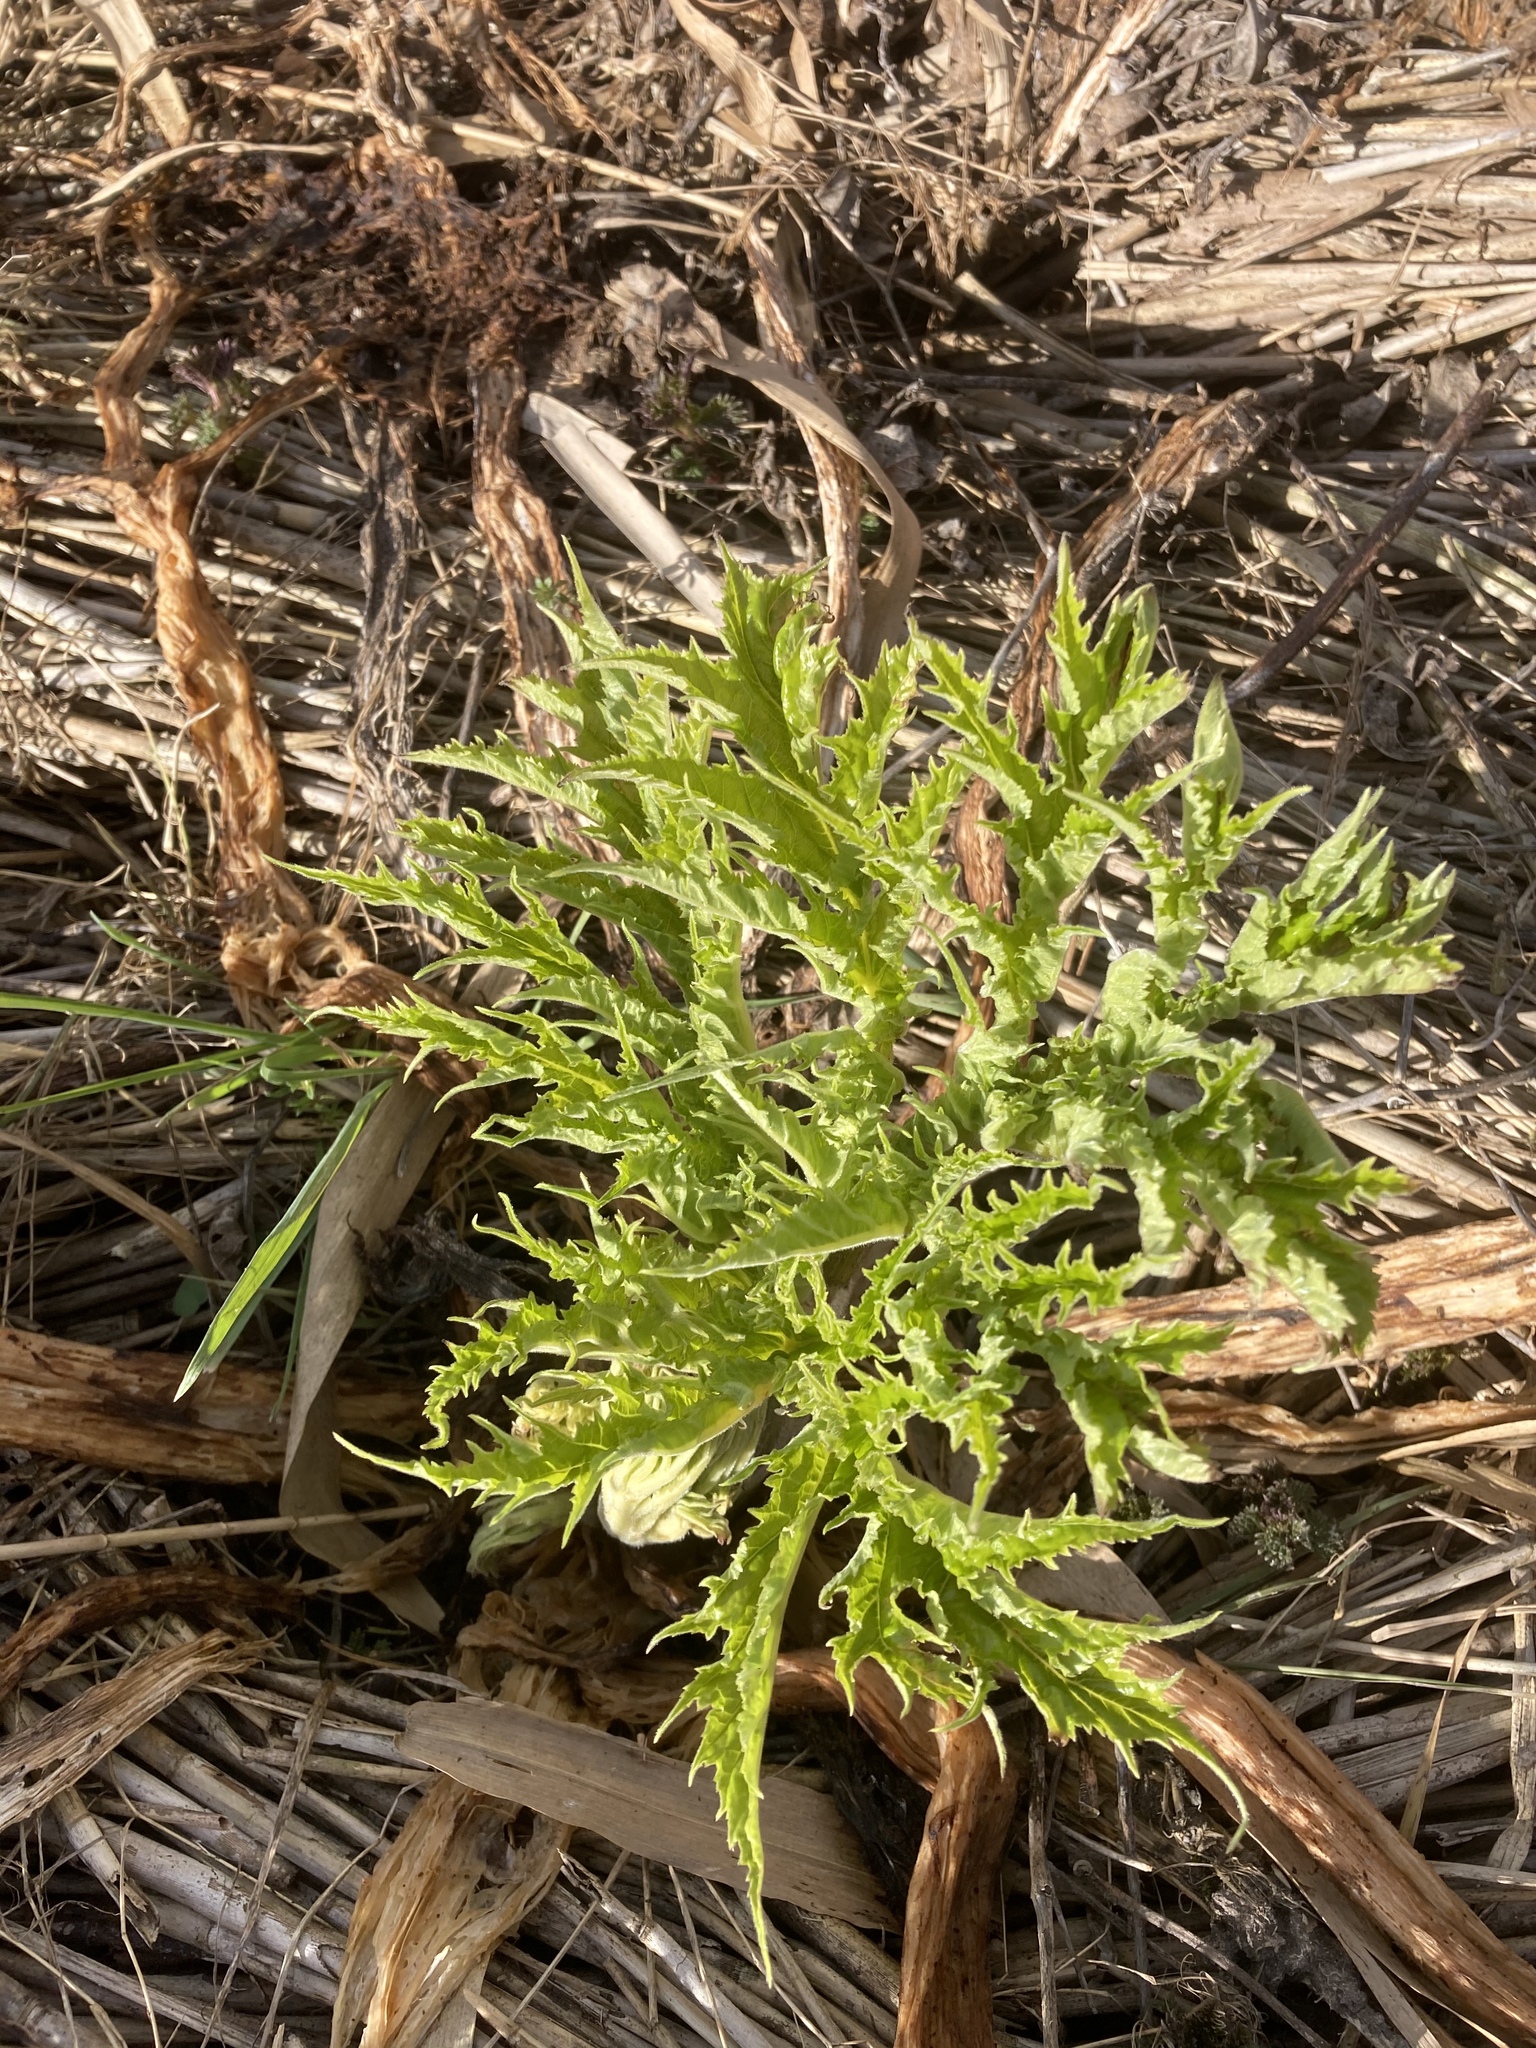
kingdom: Plantae
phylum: Tracheophyta
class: Magnoliopsida
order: Apiales
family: Apiaceae
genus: Heracleum
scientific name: Heracleum mantegazzianum
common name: Giant hogweed
